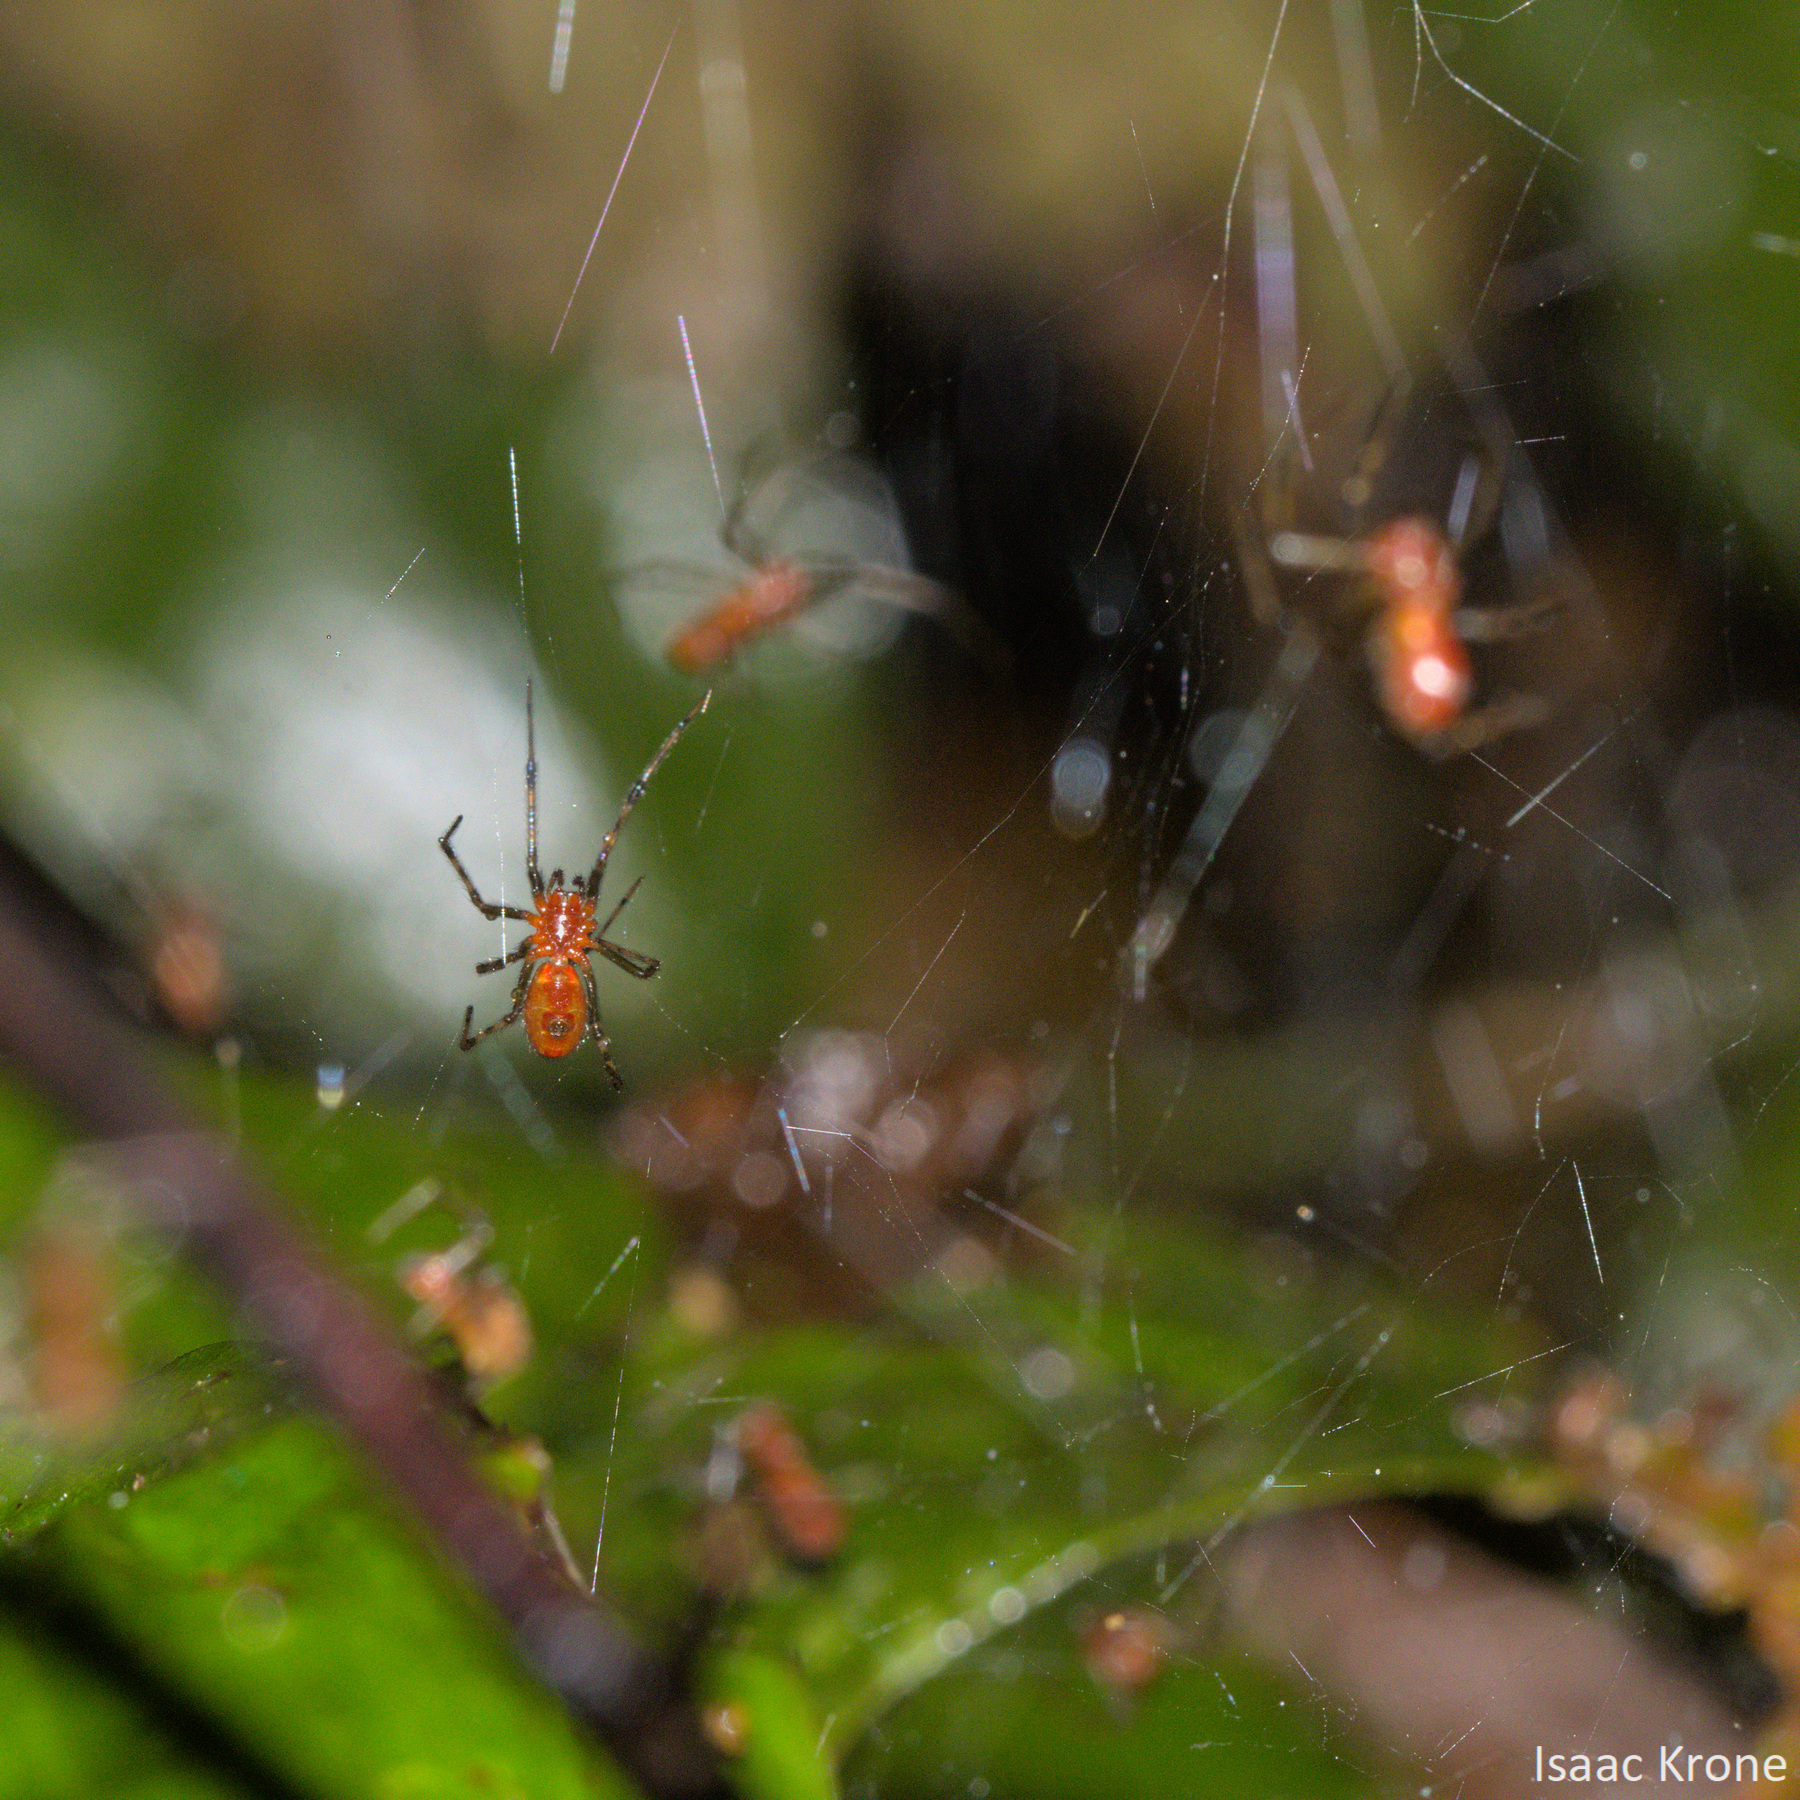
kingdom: Animalia
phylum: Arthropoda
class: Arachnida
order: Araneae
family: Theridiidae
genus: Anelosimus
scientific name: Anelosimus eximius
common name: Cobweb spiders
